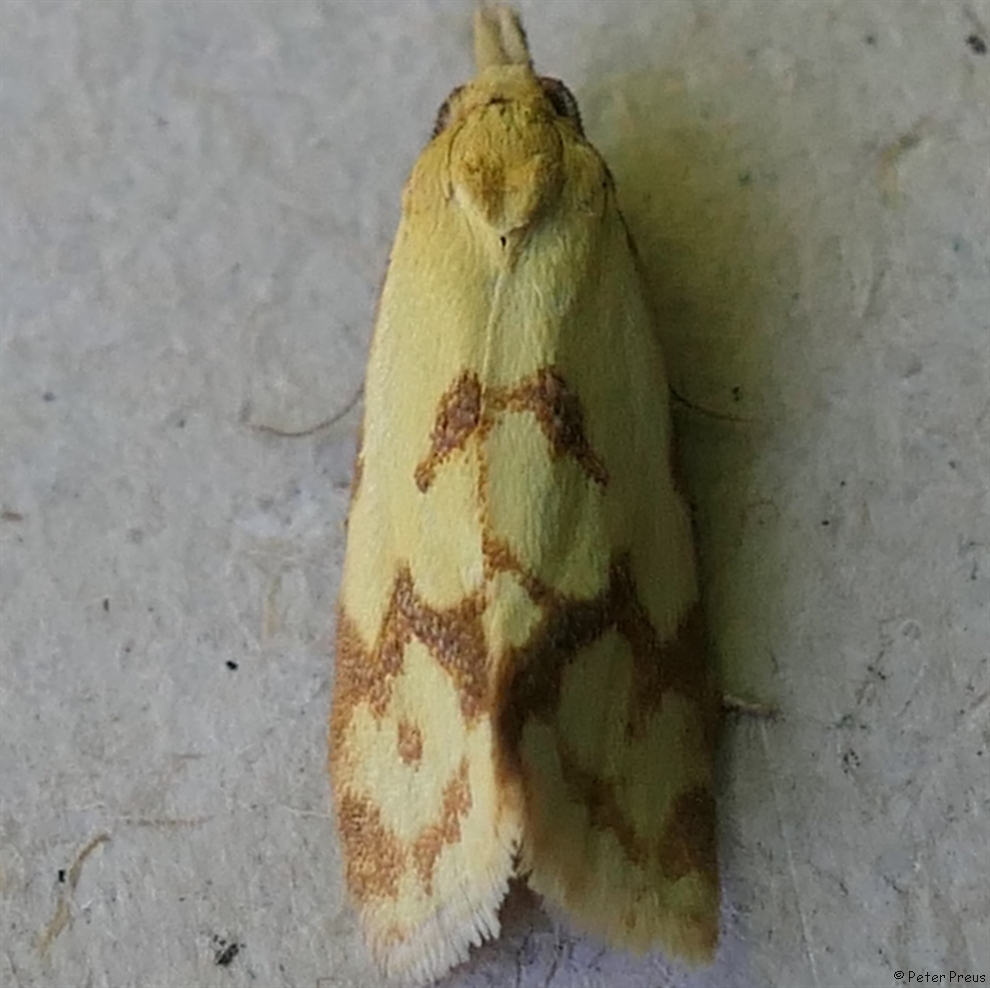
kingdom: Animalia
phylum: Arthropoda
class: Insecta
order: Lepidoptera
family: Tortricidae
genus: Agapeta
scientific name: Agapeta hamana
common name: Common yellow conch
